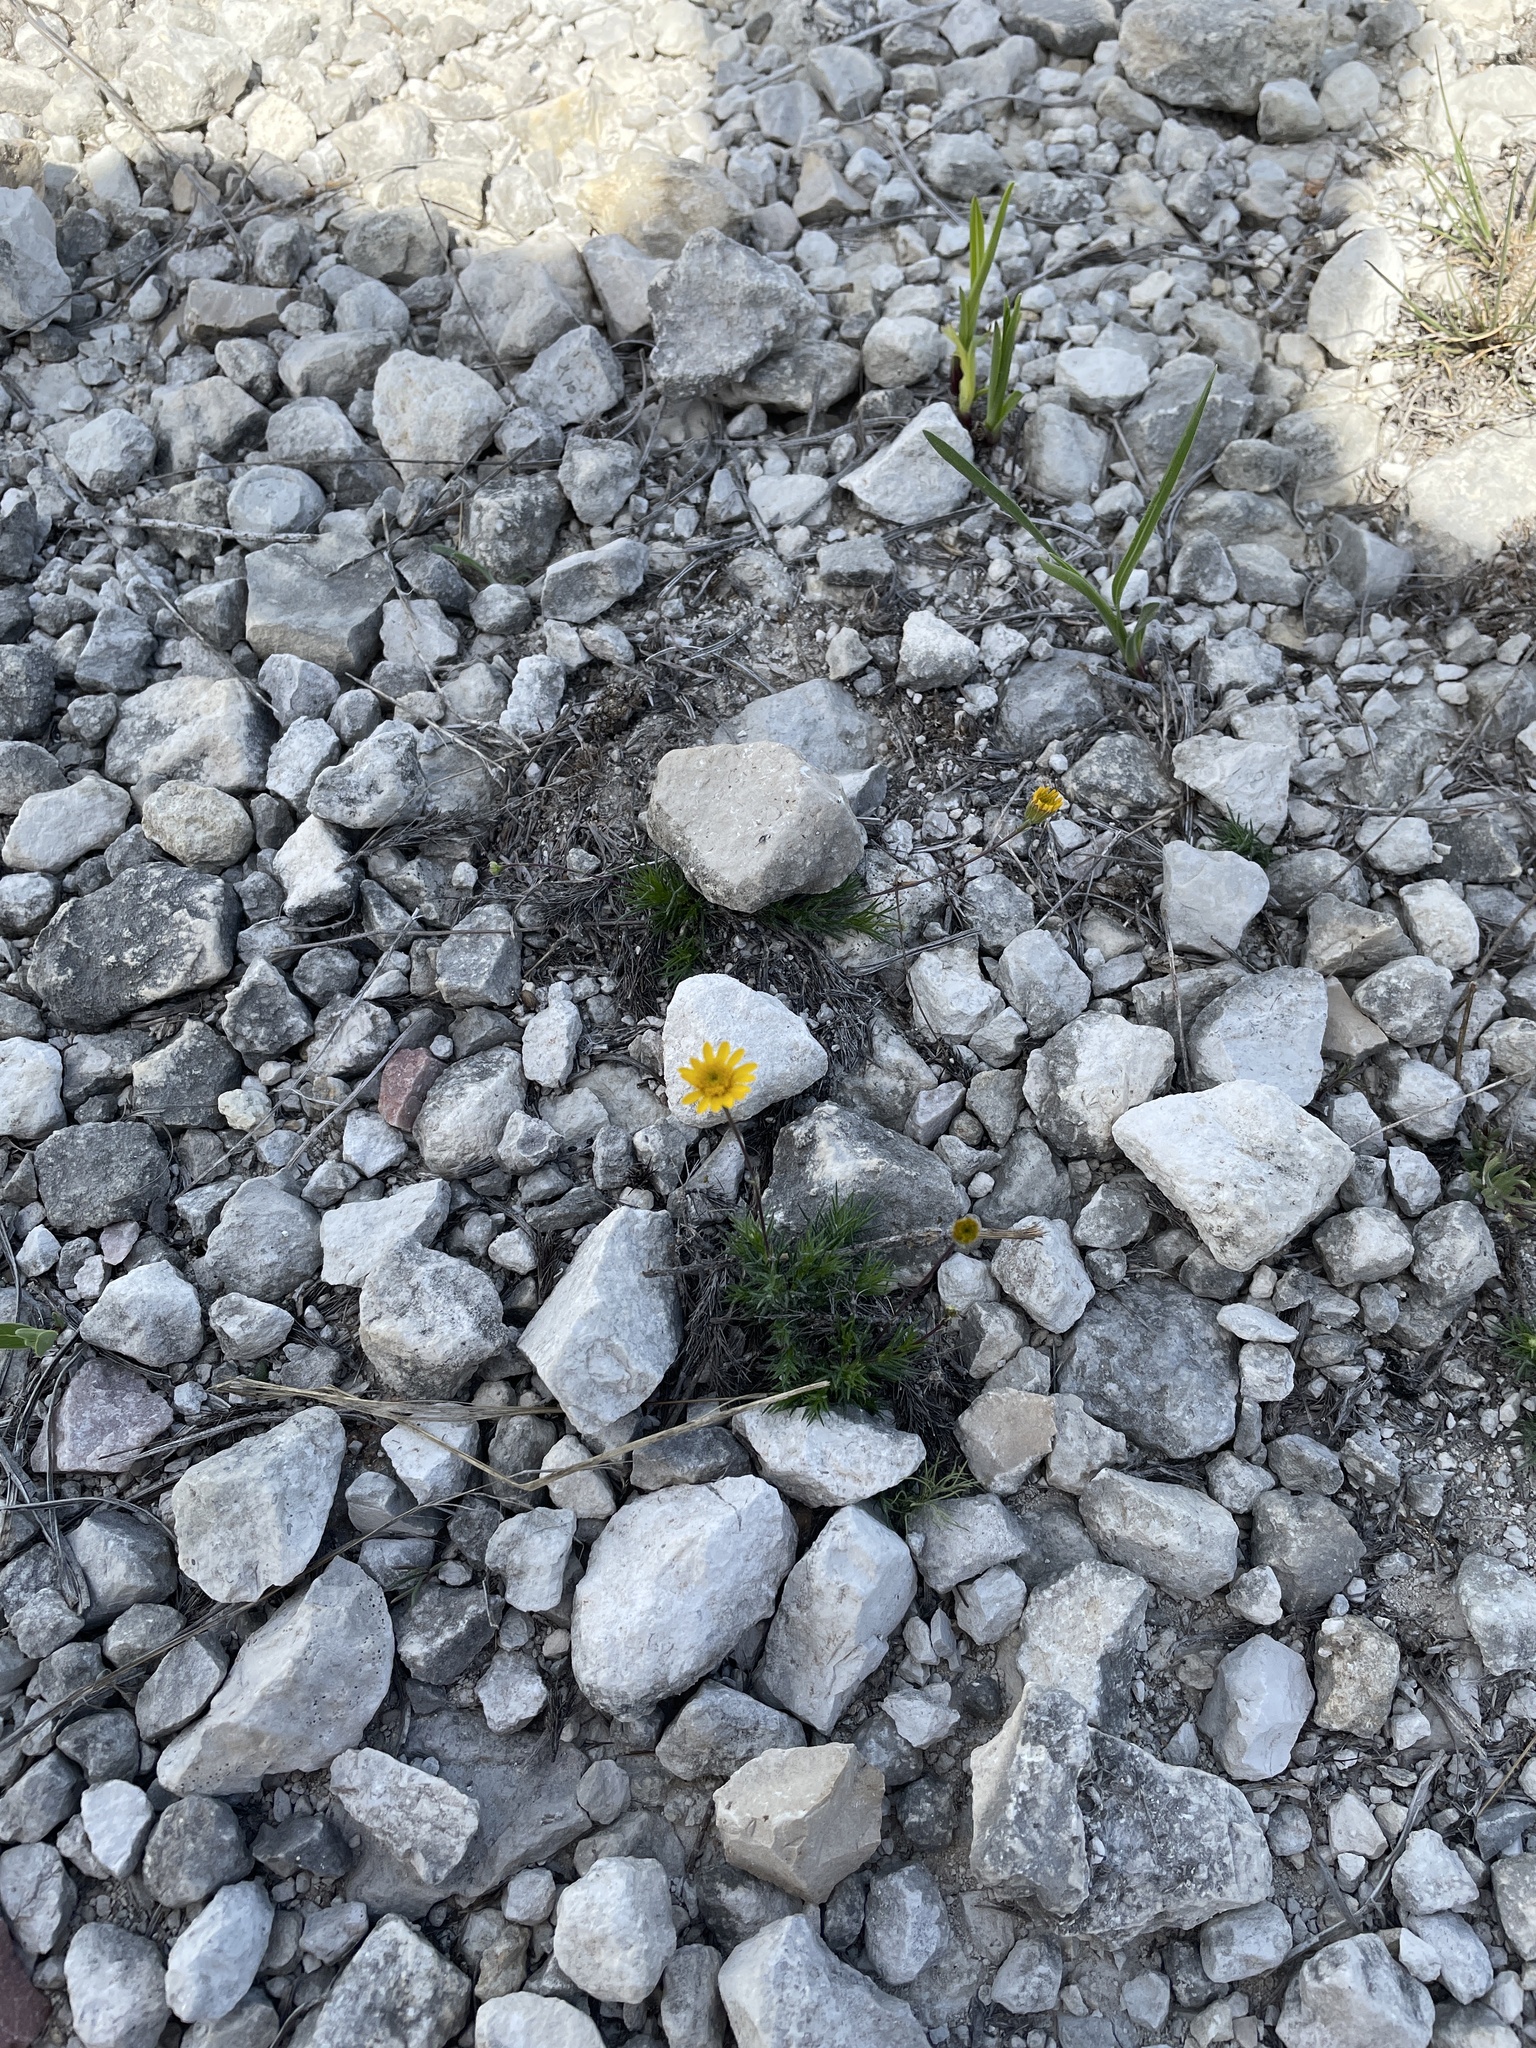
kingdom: Plantae
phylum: Tracheophyta
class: Magnoliopsida
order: Asterales
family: Asteraceae
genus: Thymophylla
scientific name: Thymophylla pentachaeta
